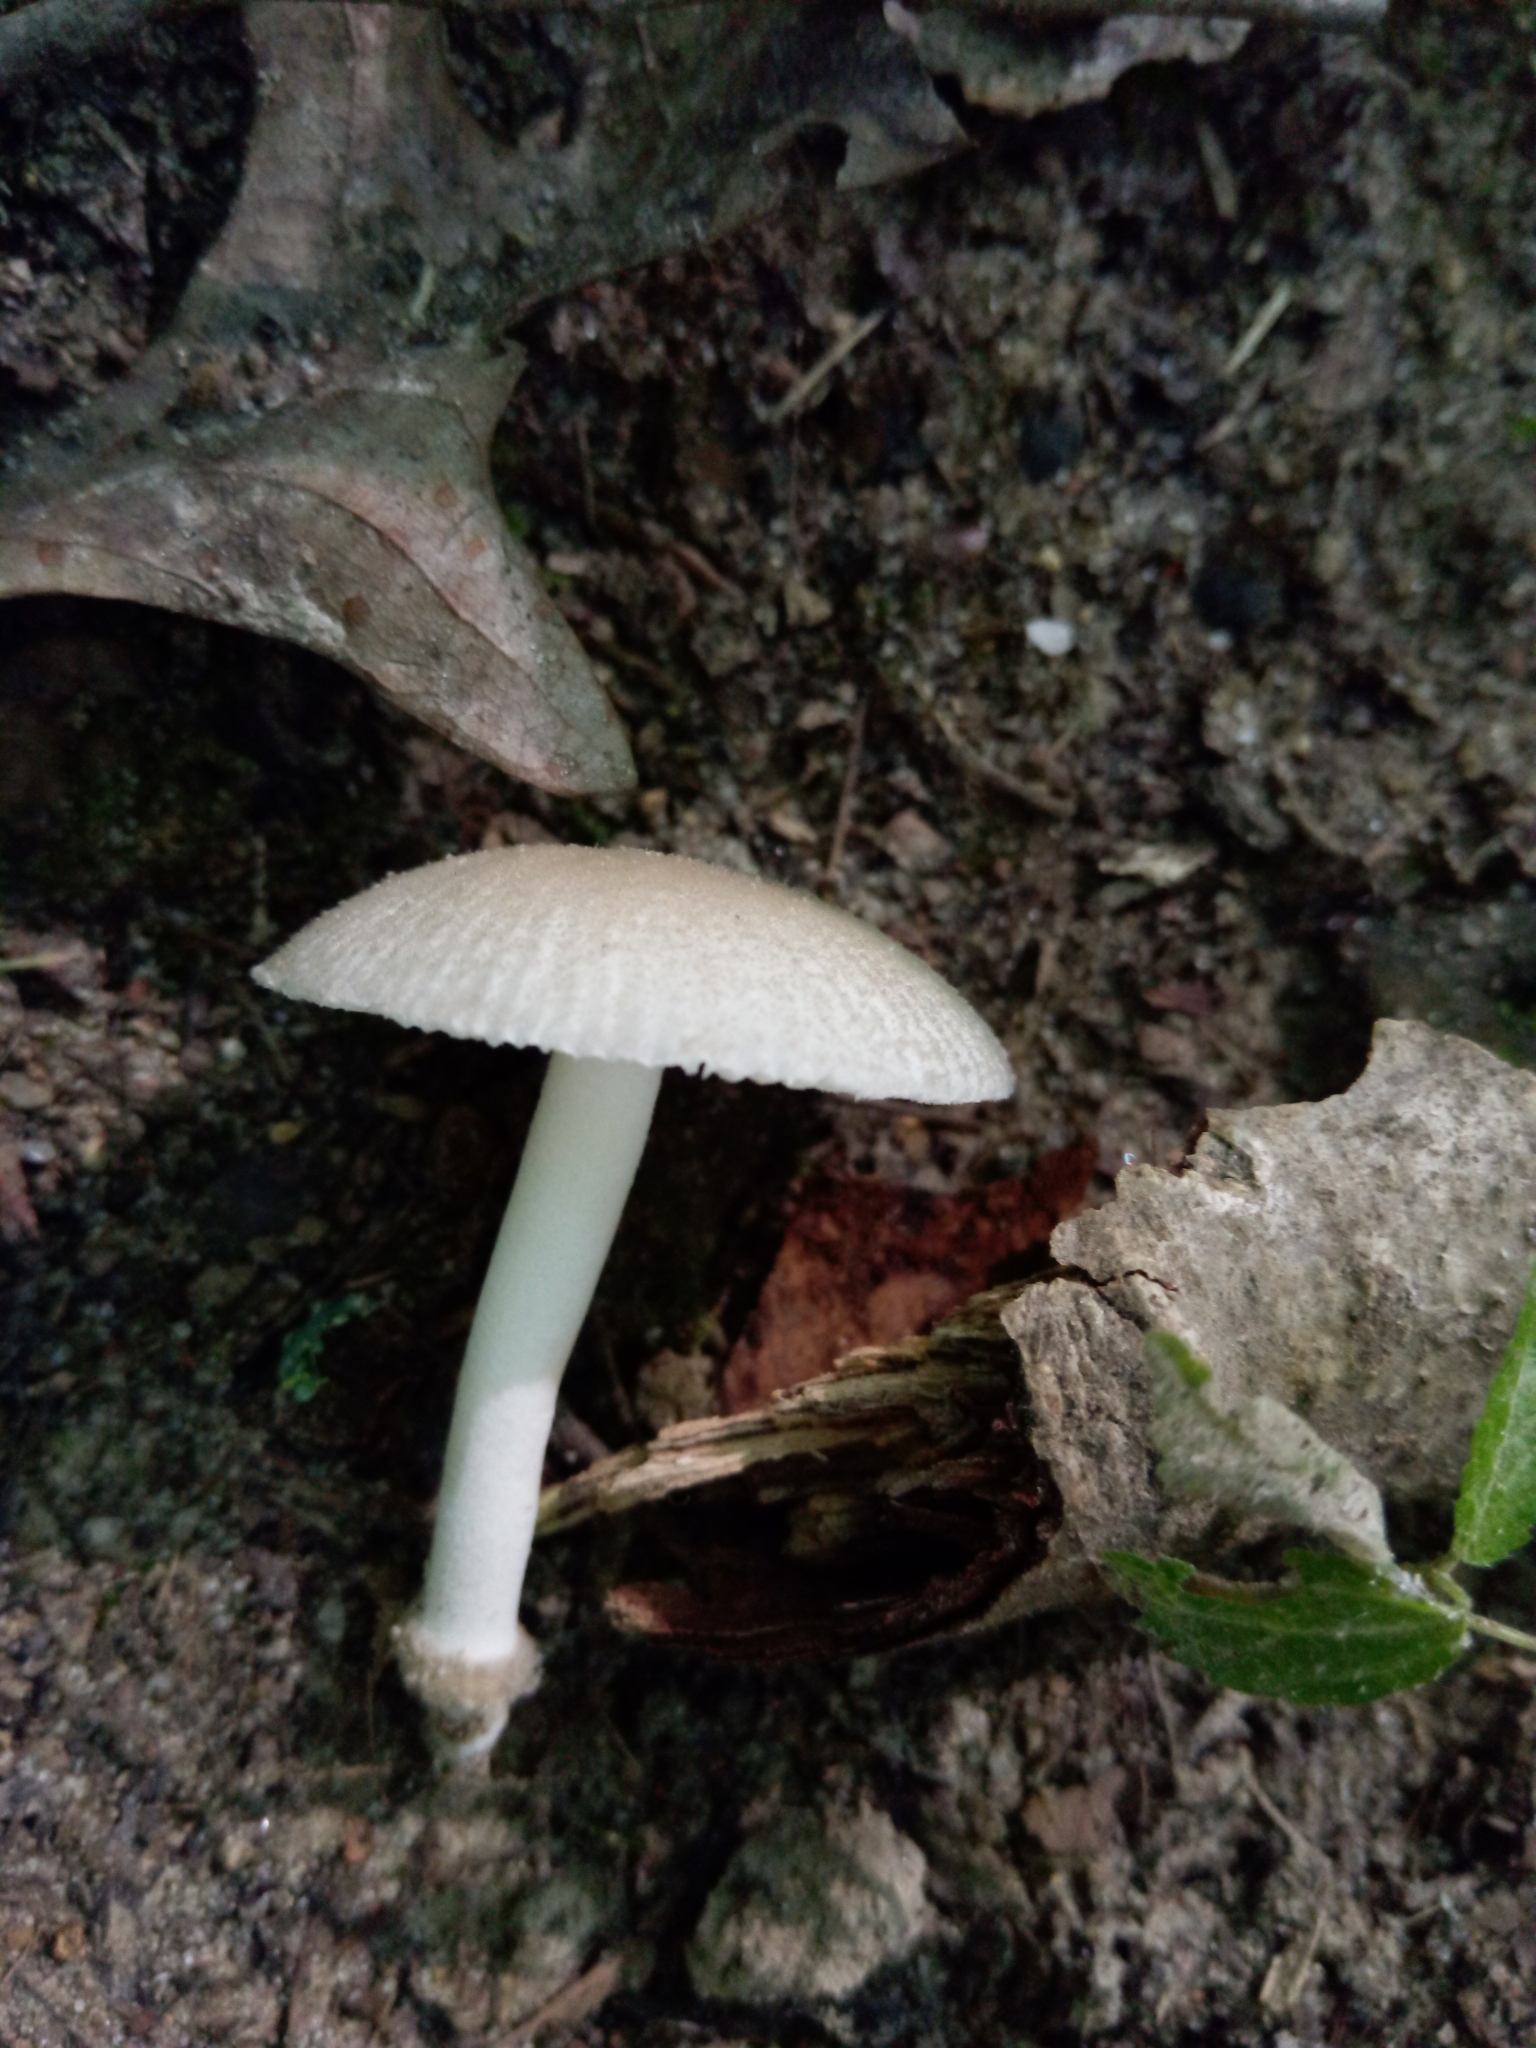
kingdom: Fungi
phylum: Basidiomycota
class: Agaricomycetes
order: Agaricales
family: Amanitaceae
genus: Amanita
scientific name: Amanita farinosa
